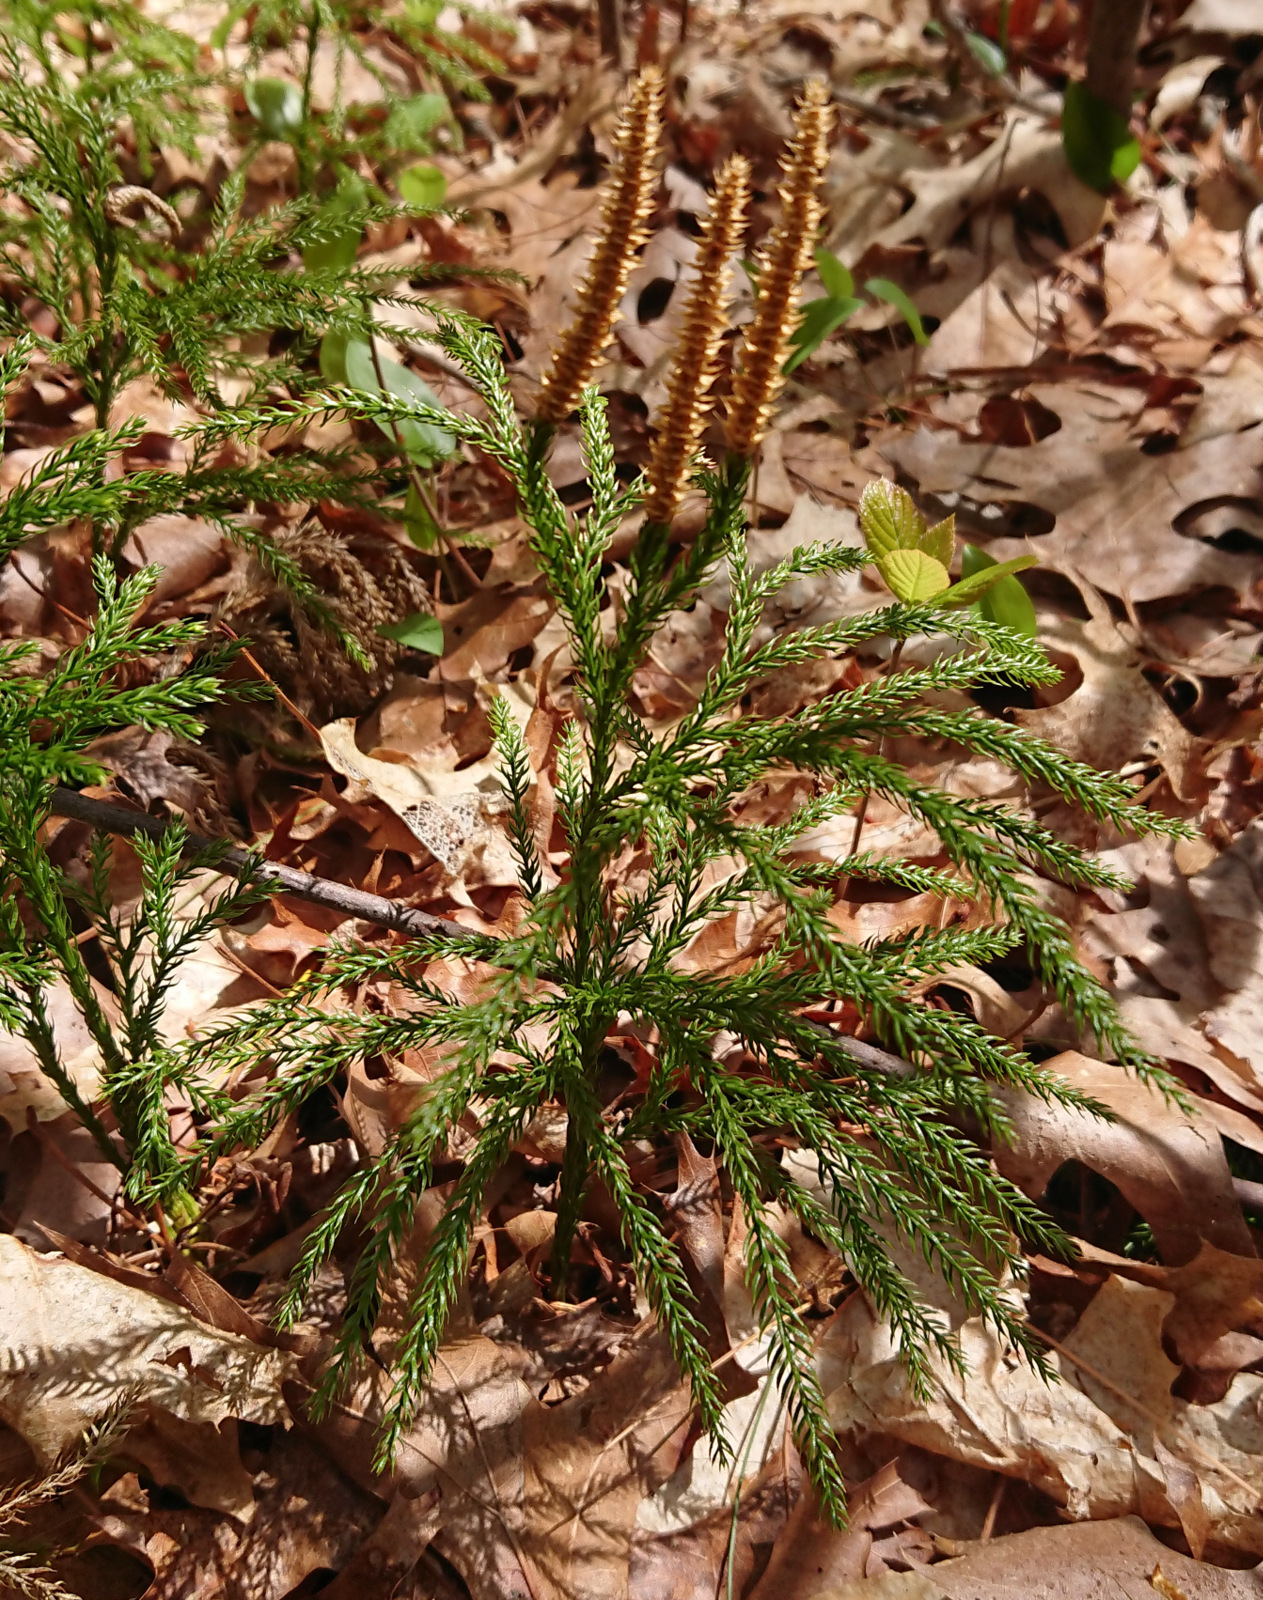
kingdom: Plantae
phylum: Tracheophyta
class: Lycopodiopsida
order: Lycopodiales
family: Lycopodiaceae
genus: Dendrolycopodium
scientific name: Dendrolycopodium hickeyi
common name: Hickey's clubmoss
